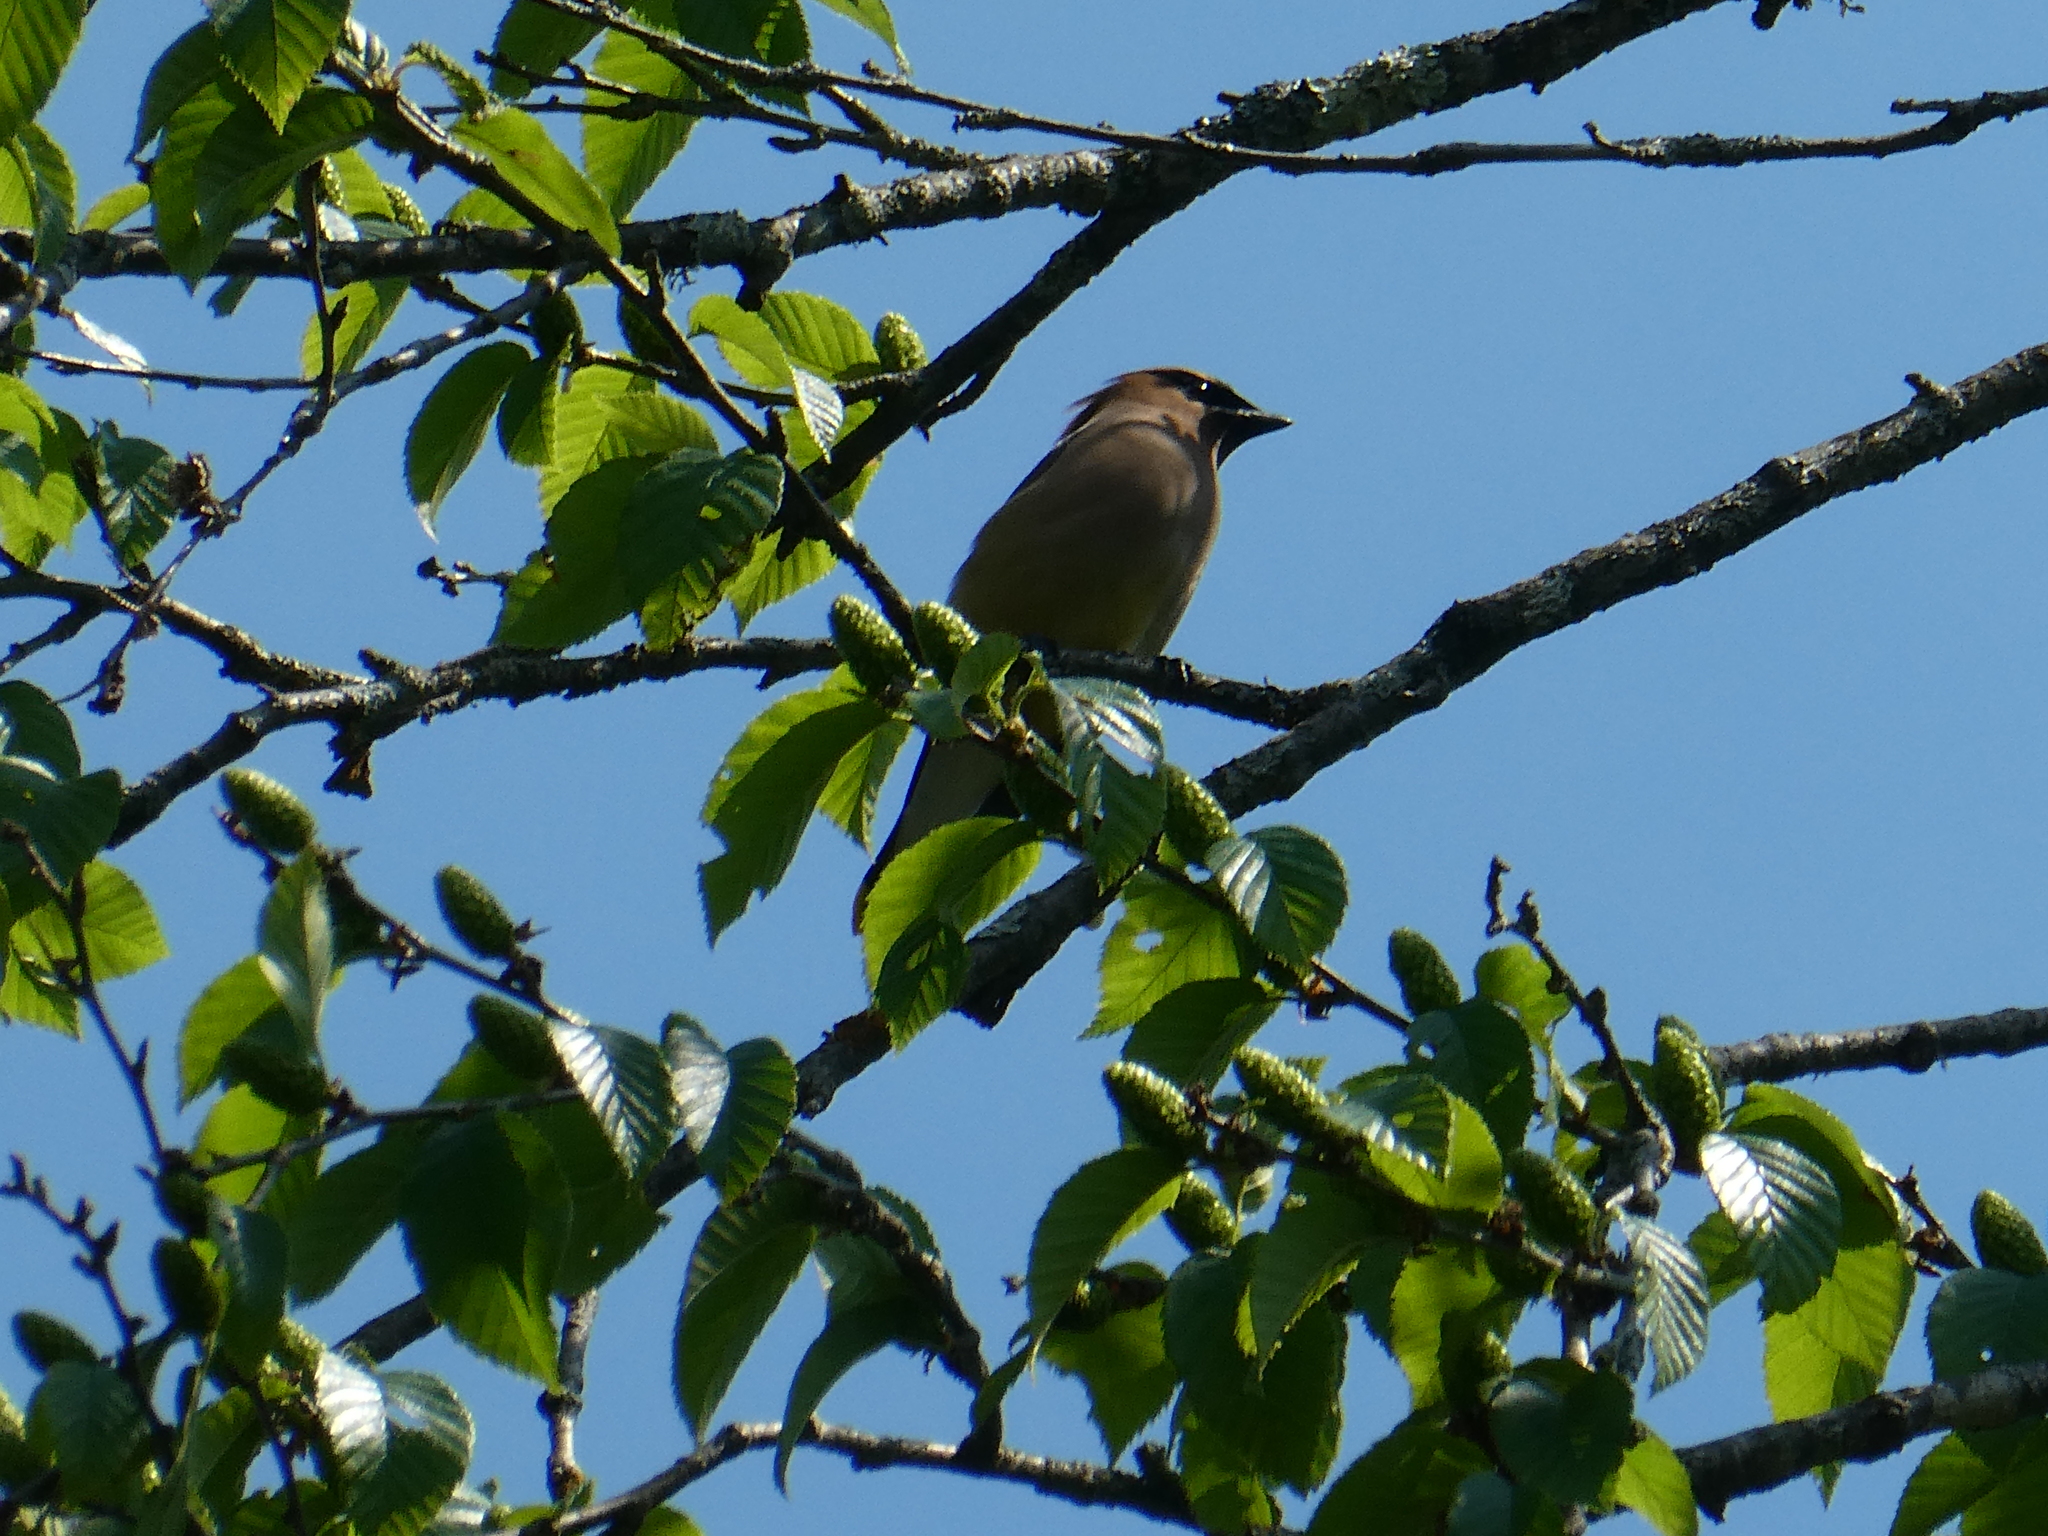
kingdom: Animalia
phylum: Chordata
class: Aves
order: Passeriformes
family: Bombycillidae
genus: Bombycilla
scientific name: Bombycilla cedrorum
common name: Cedar waxwing
